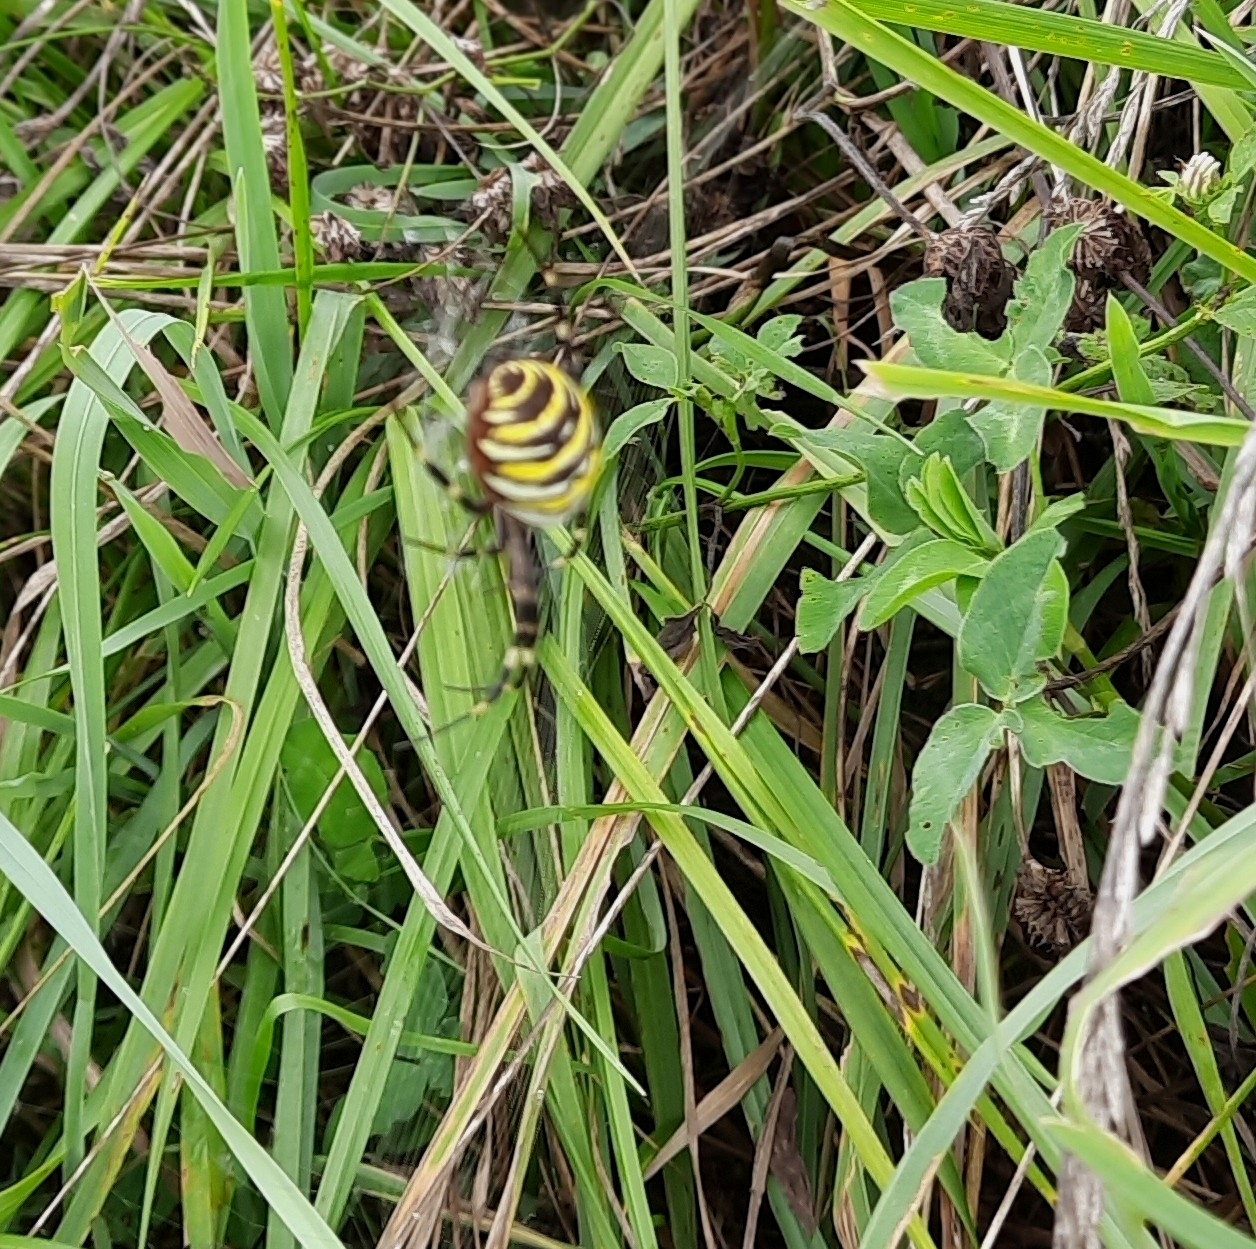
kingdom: Animalia
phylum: Arthropoda
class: Arachnida
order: Araneae
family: Araneidae
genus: Argiope
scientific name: Argiope bruennichi
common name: Wasp spider
